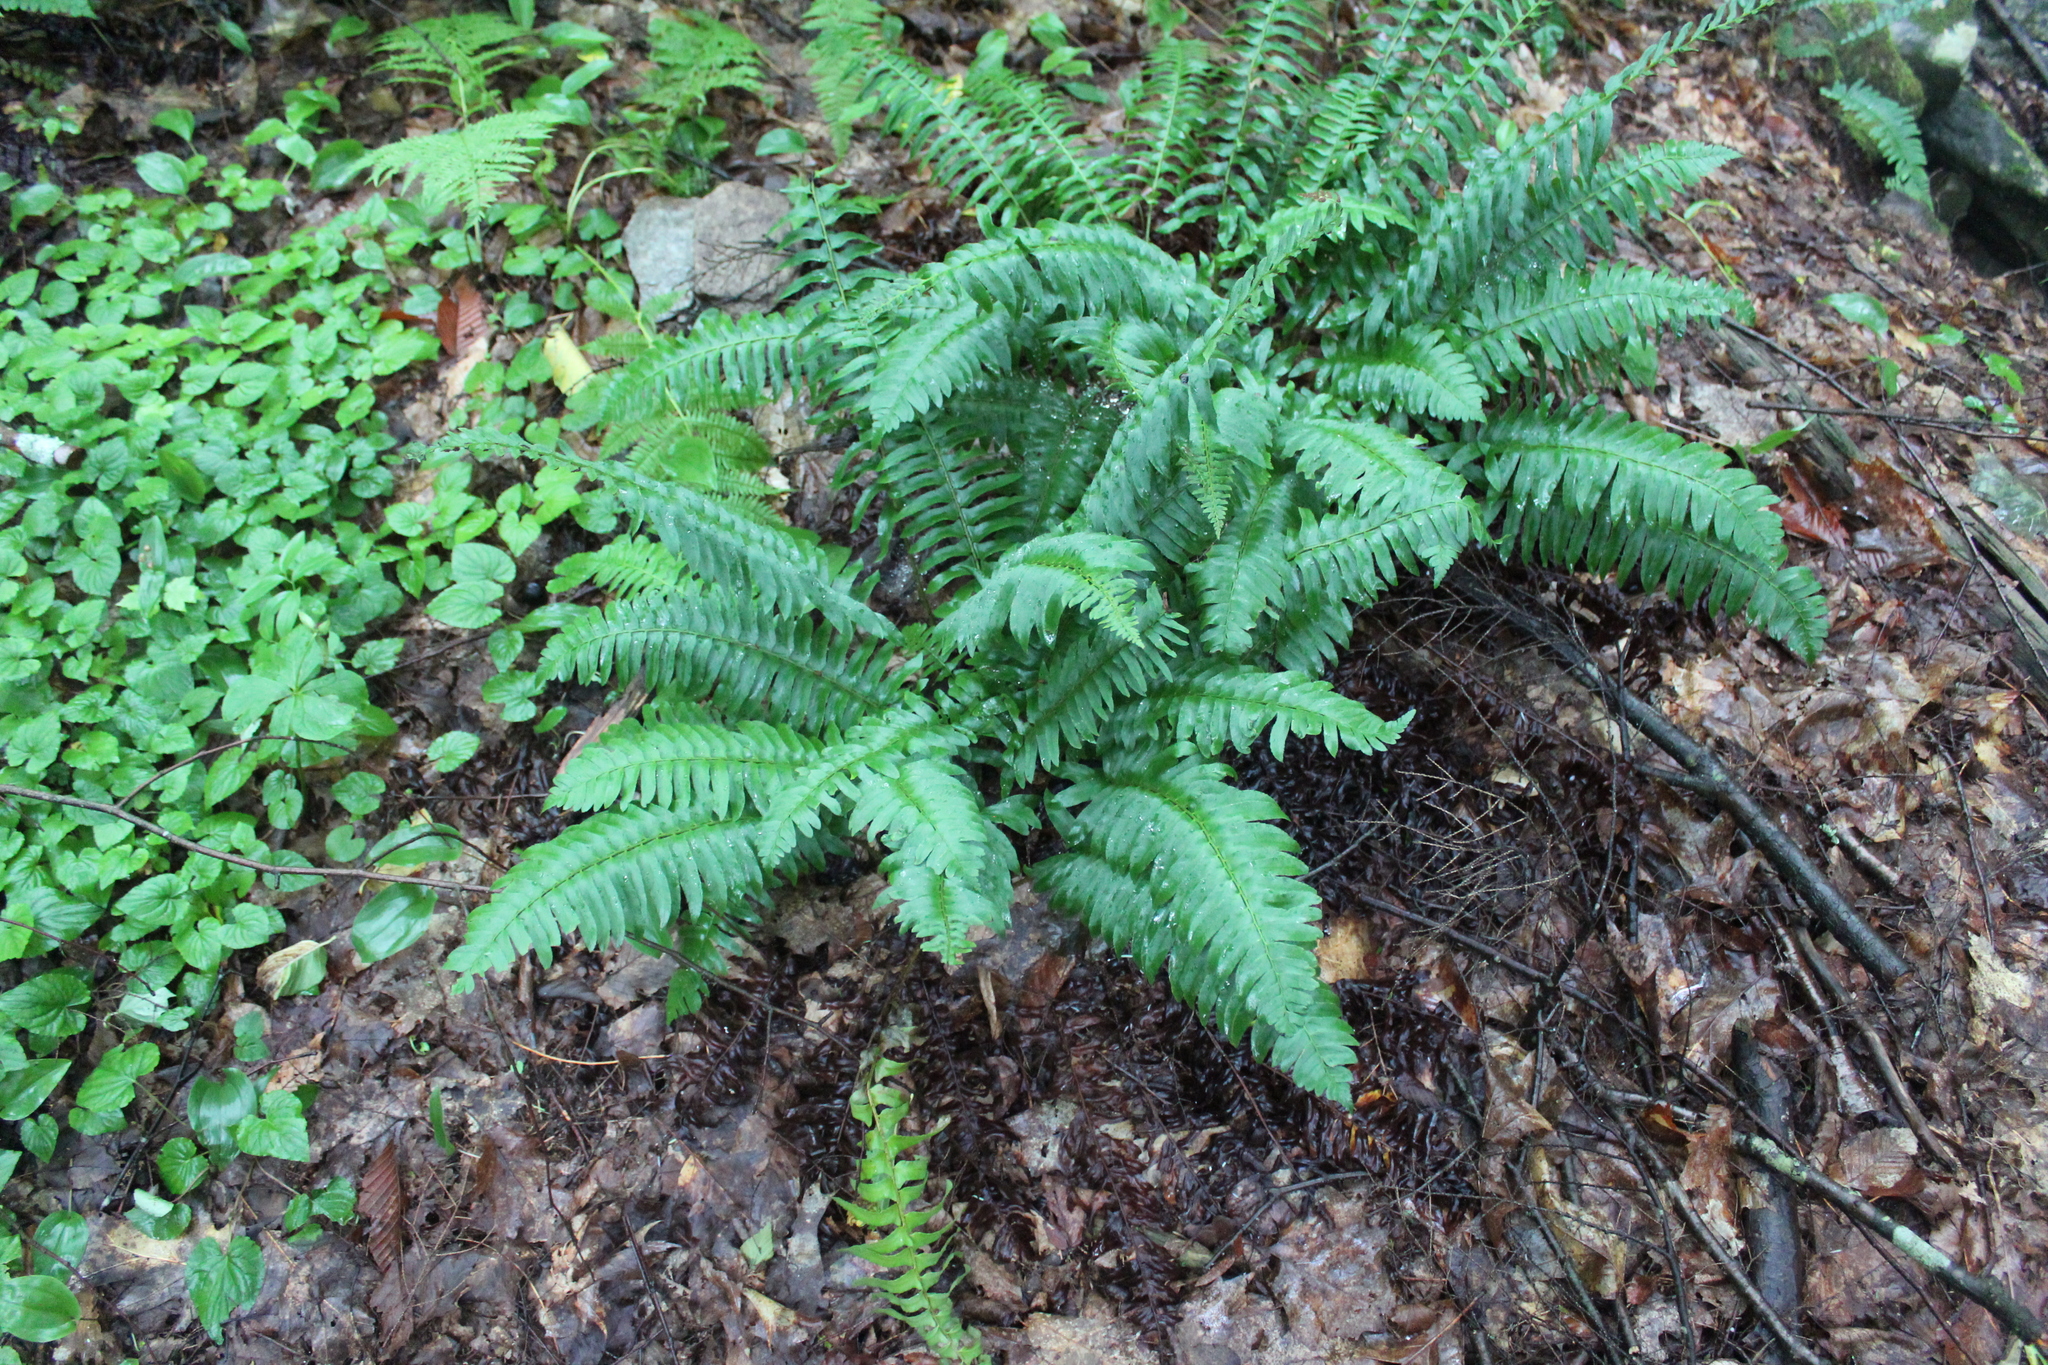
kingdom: Plantae
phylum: Tracheophyta
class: Polypodiopsida
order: Polypodiales
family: Dryopteridaceae
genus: Polystichum
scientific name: Polystichum acrostichoides
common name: Christmas fern
